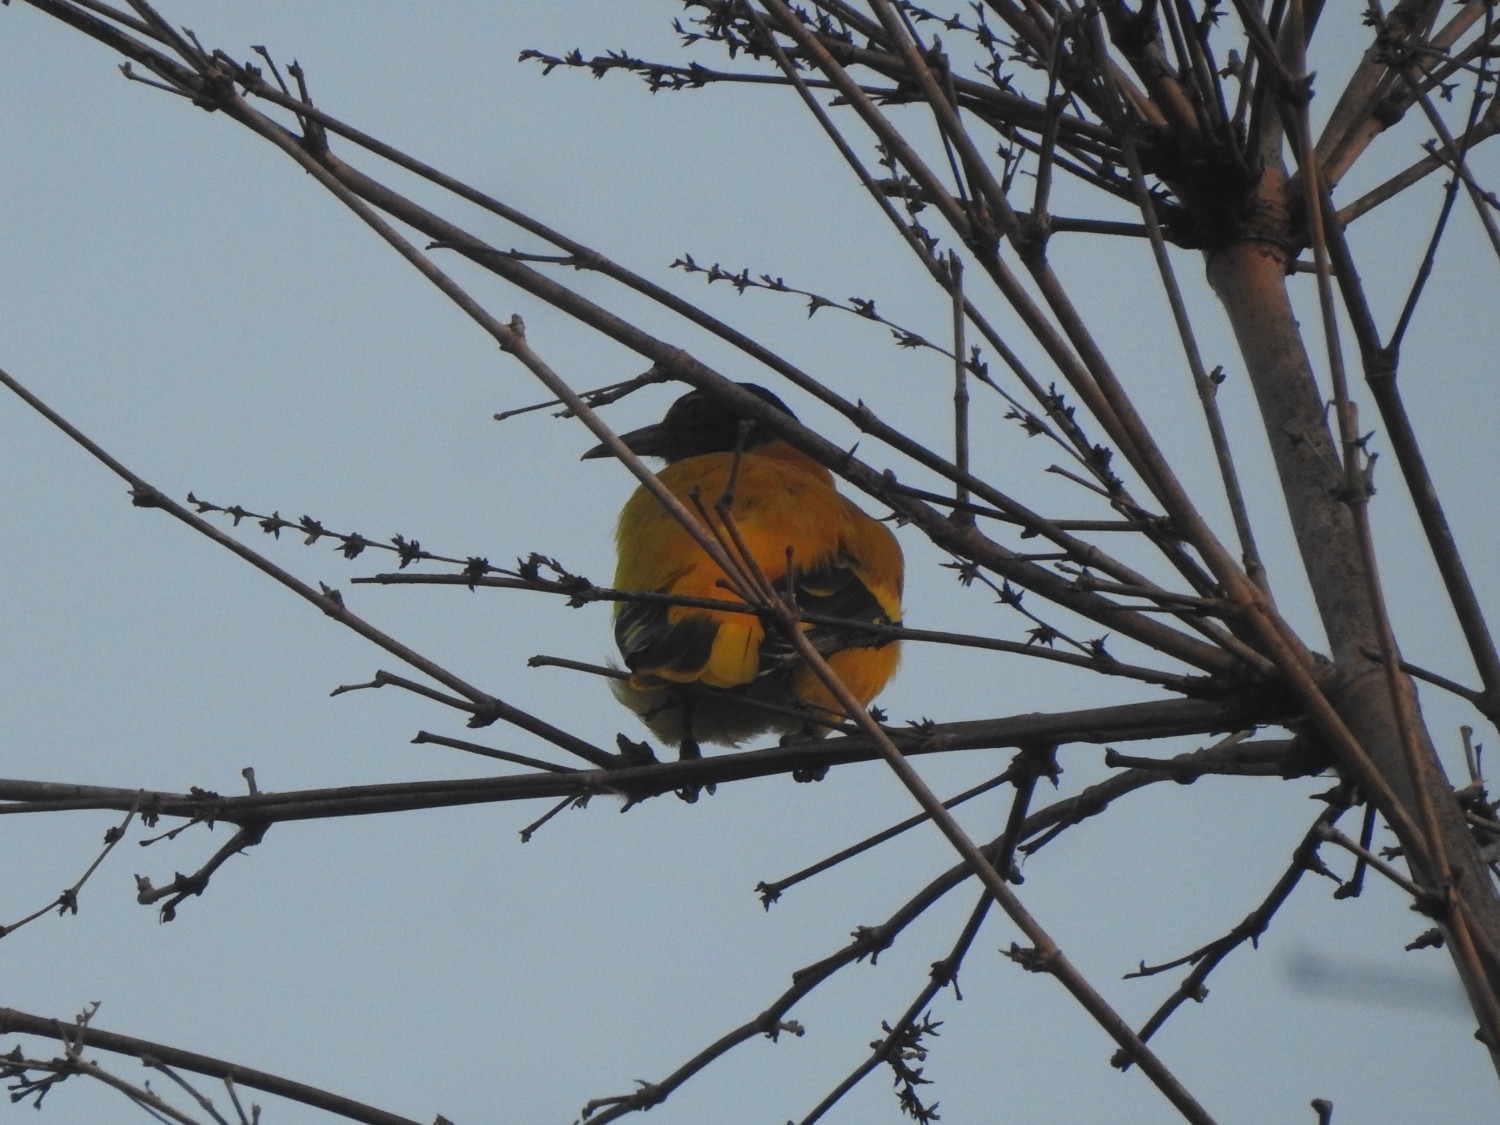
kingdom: Animalia
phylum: Chordata
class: Aves
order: Passeriformes
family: Oriolidae
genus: Oriolus
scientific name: Oriolus xanthornus
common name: Black-hooded oriole
